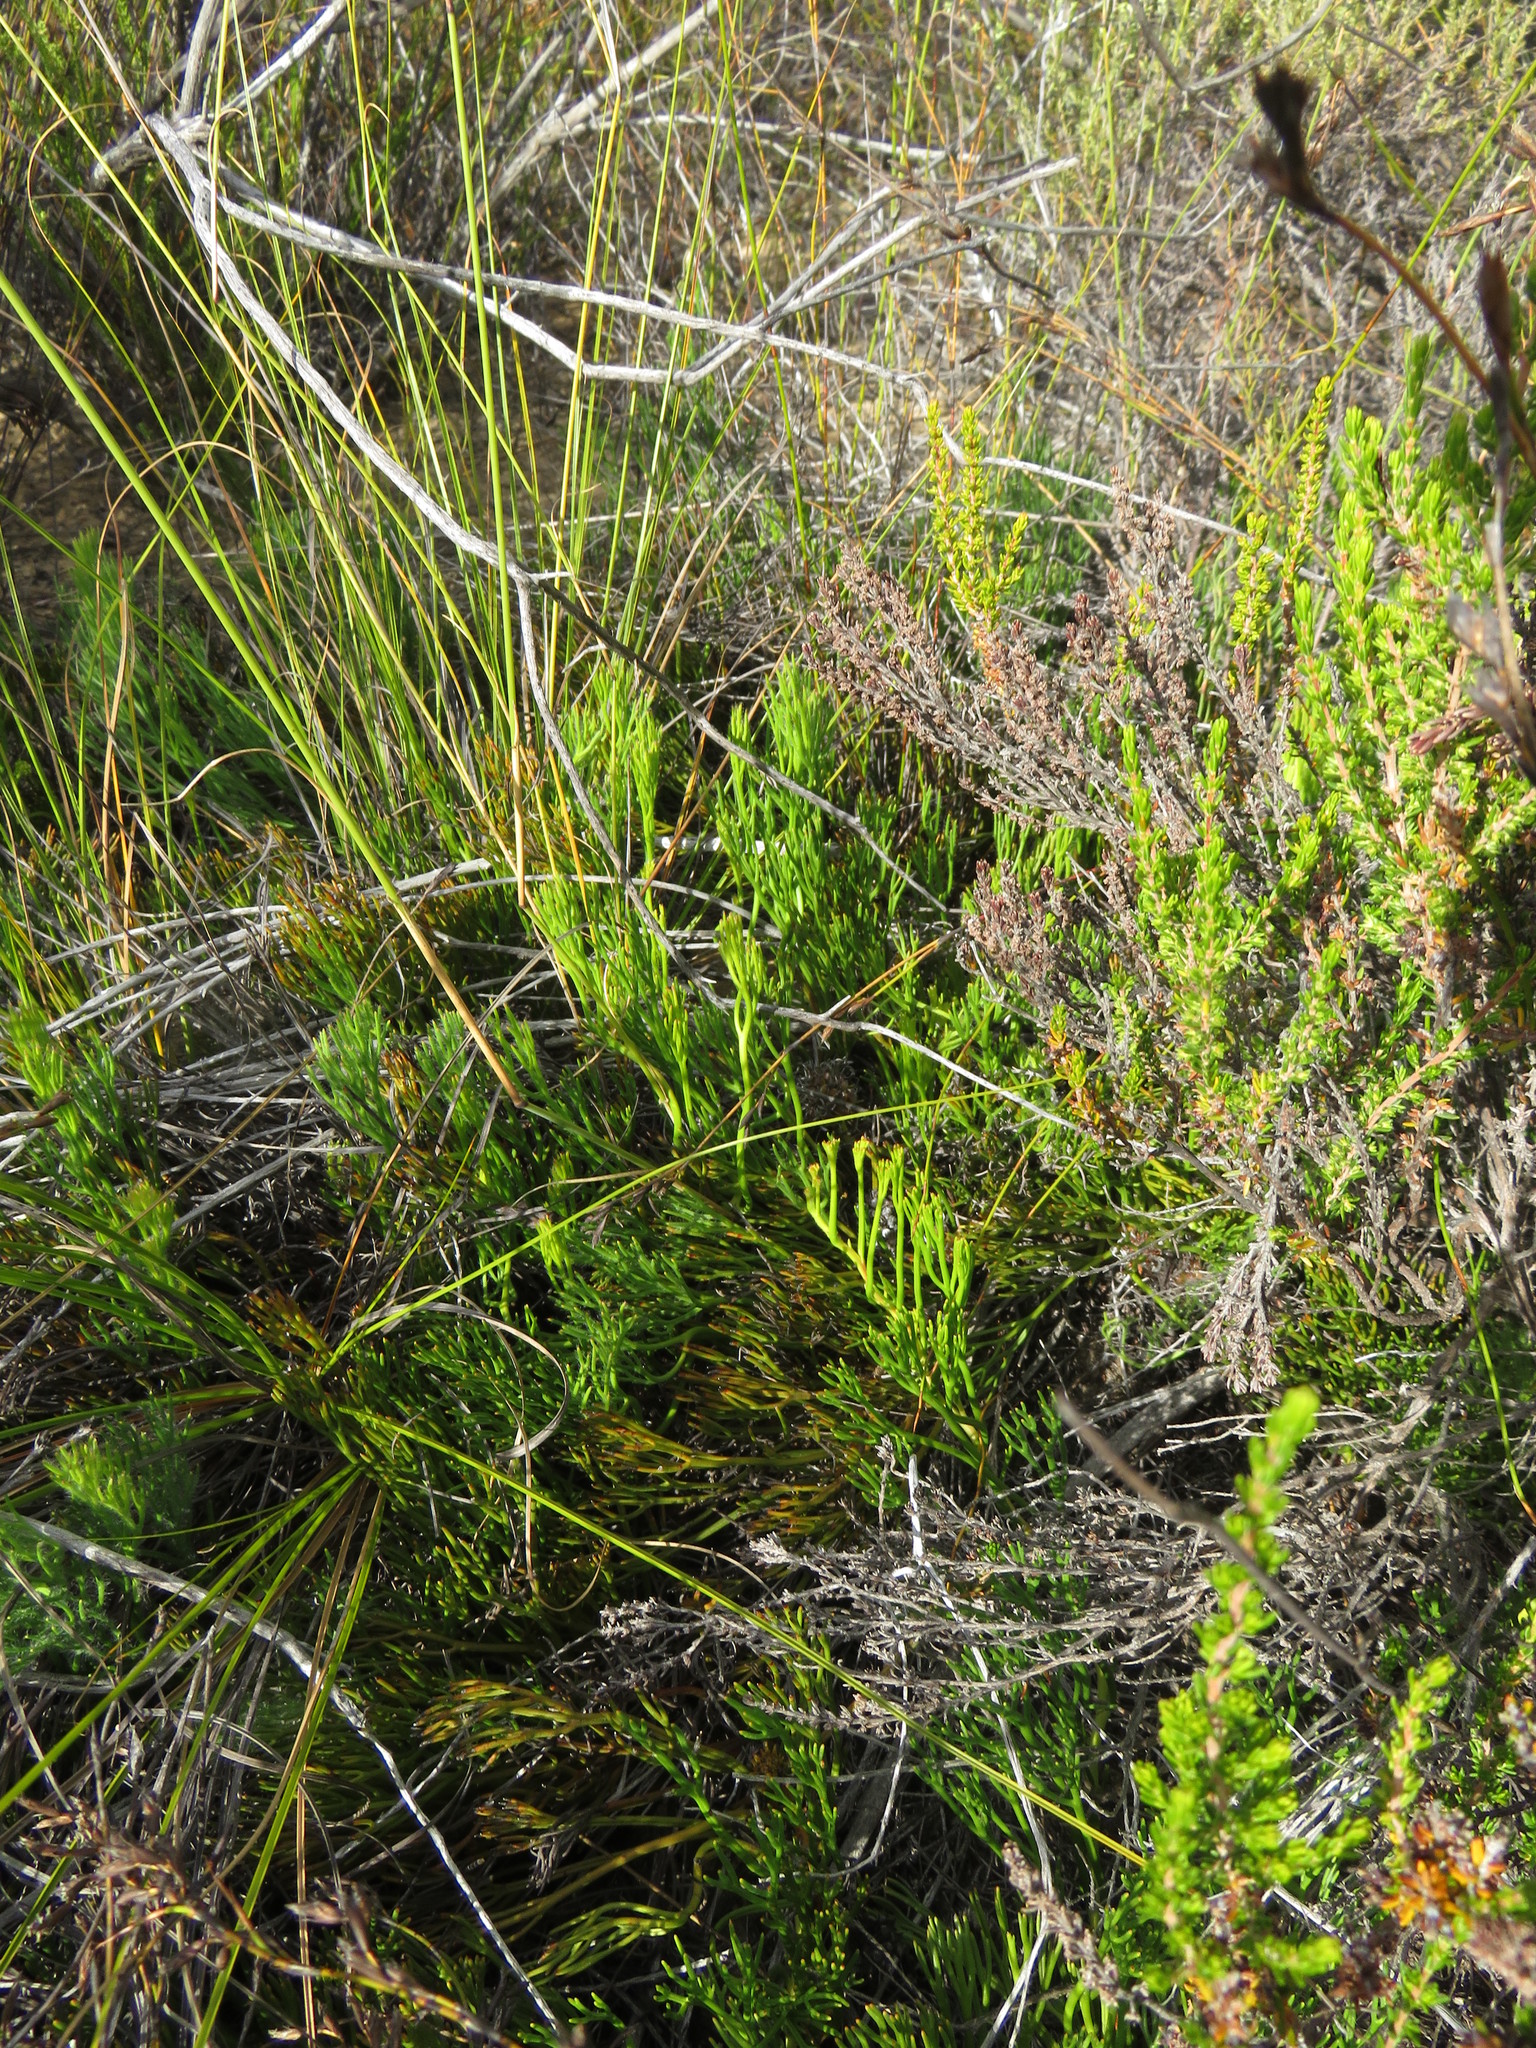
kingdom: Plantae
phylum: Tracheophyta
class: Magnoliopsida
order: Proteales
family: Proteaceae
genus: Serruria
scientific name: Serruria effusa
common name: Candelabra spiderhead
